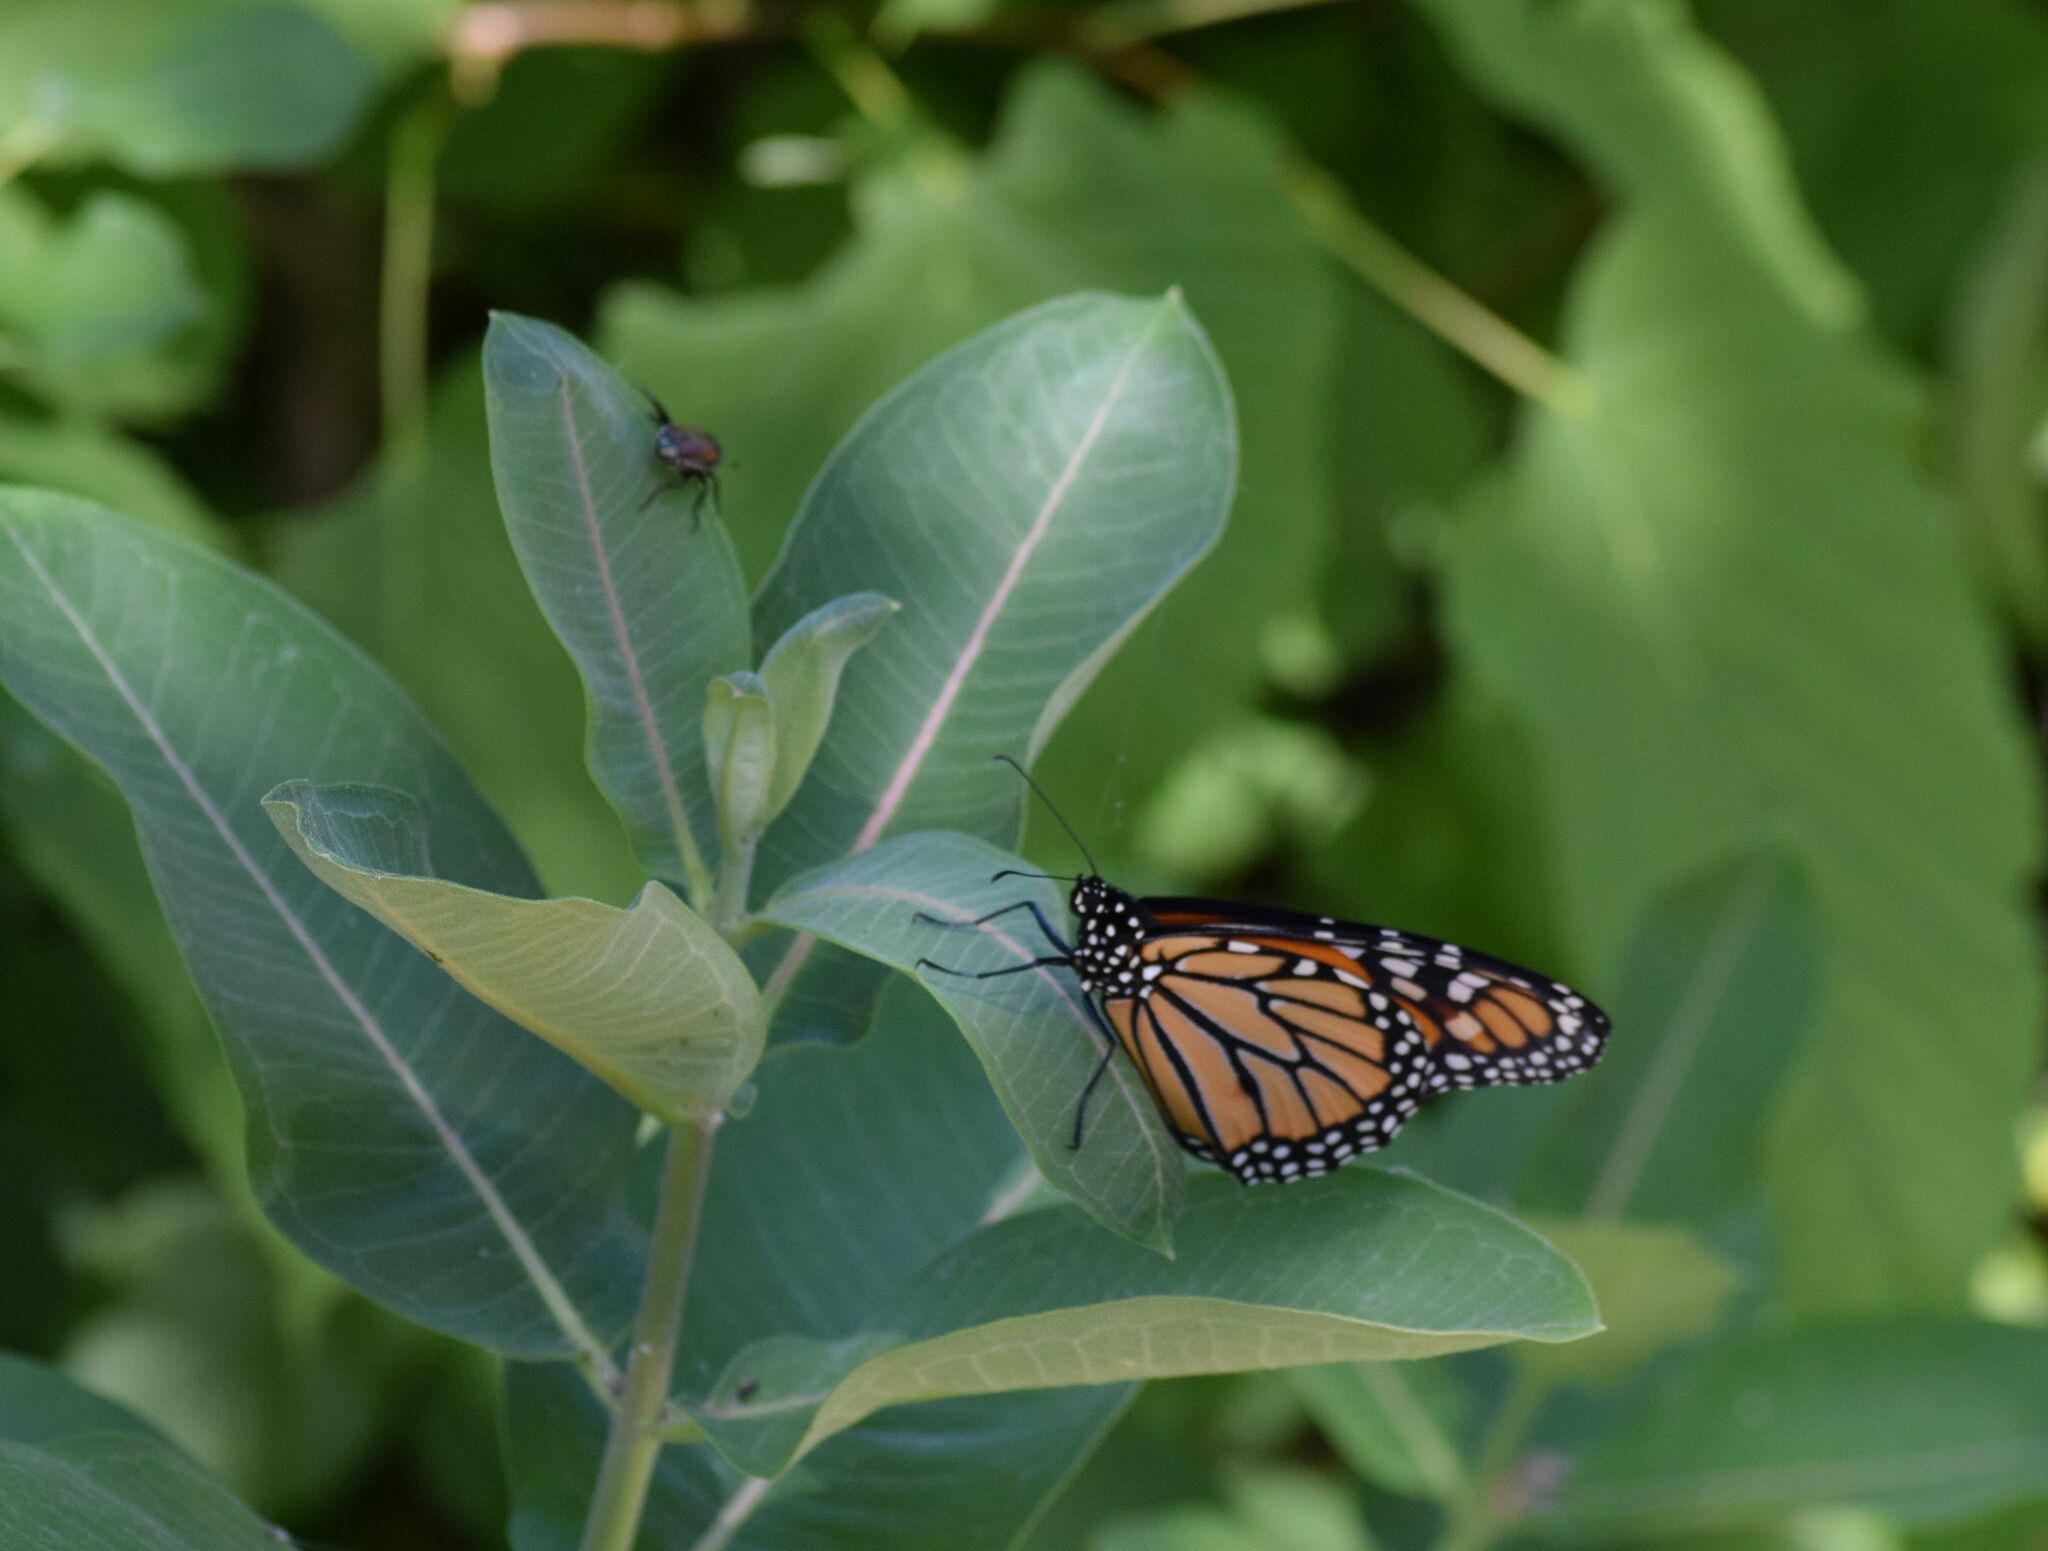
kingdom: Animalia
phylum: Arthropoda
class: Insecta
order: Lepidoptera
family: Nymphalidae
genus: Danaus
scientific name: Danaus plexippus
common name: Monarch
